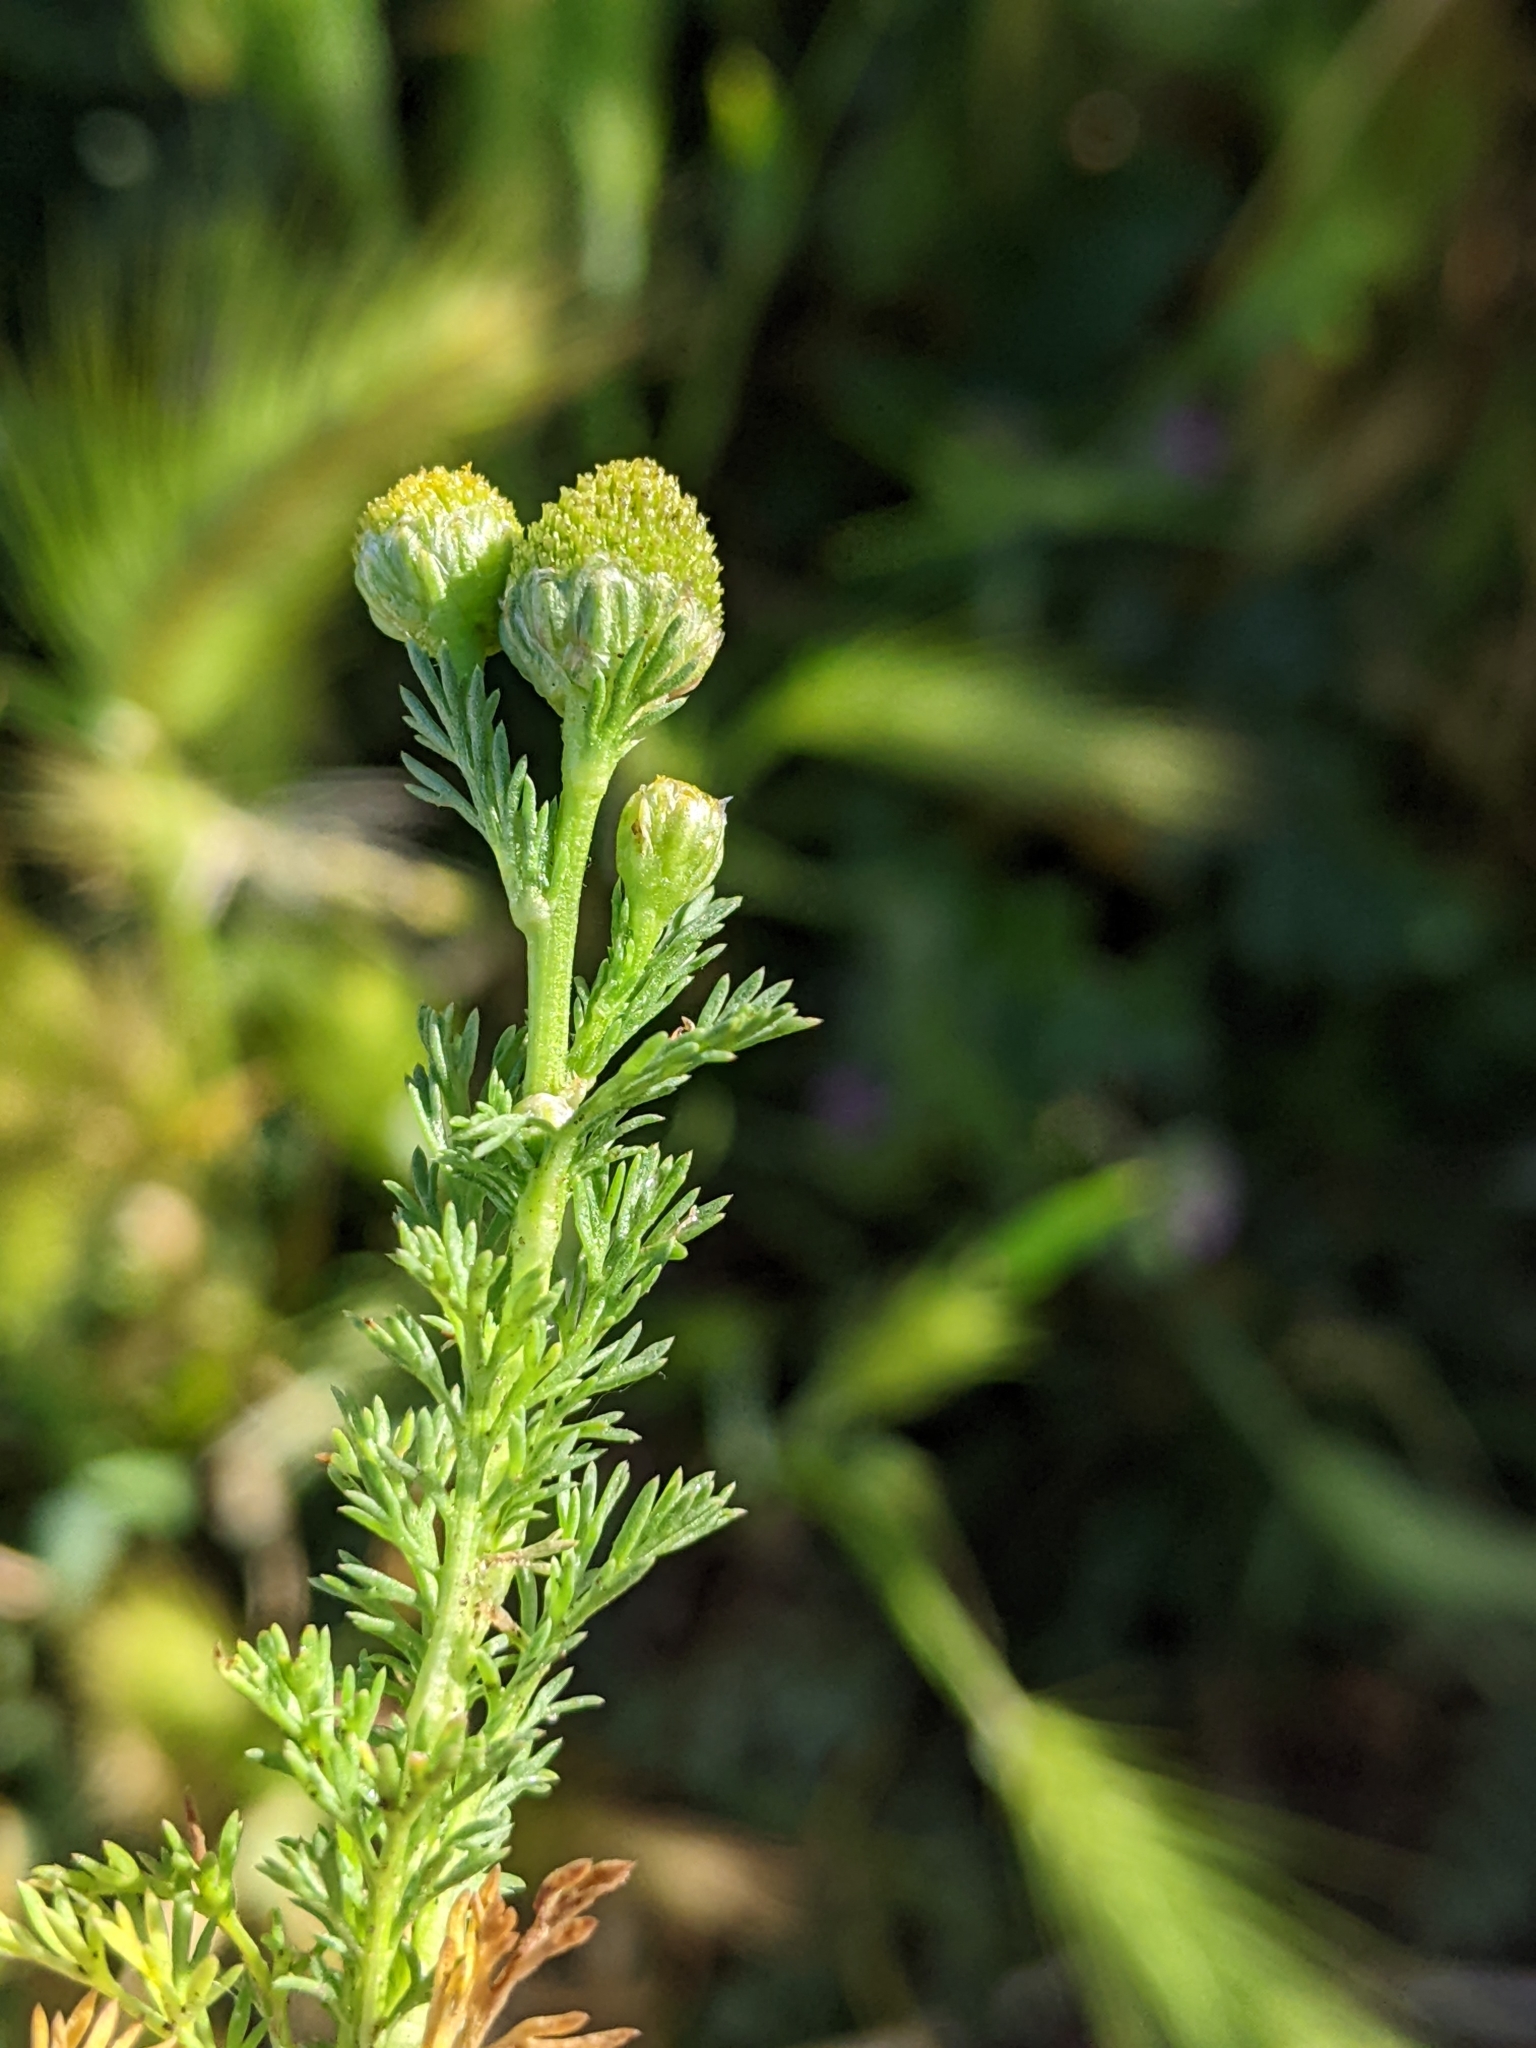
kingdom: Plantae
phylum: Tracheophyta
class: Magnoliopsida
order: Asterales
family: Asteraceae
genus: Matricaria
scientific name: Matricaria discoidea
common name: Disc mayweed
